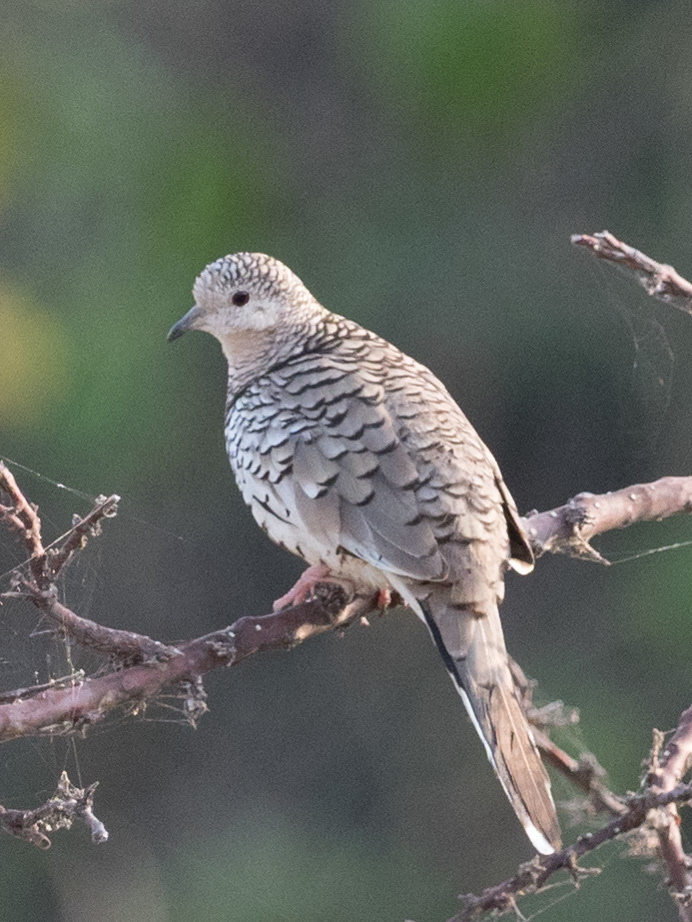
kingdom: Animalia
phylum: Chordata
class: Aves
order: Columbiformes
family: Columbidae
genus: Columbina
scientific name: Columbina squammata
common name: Scaled dove
